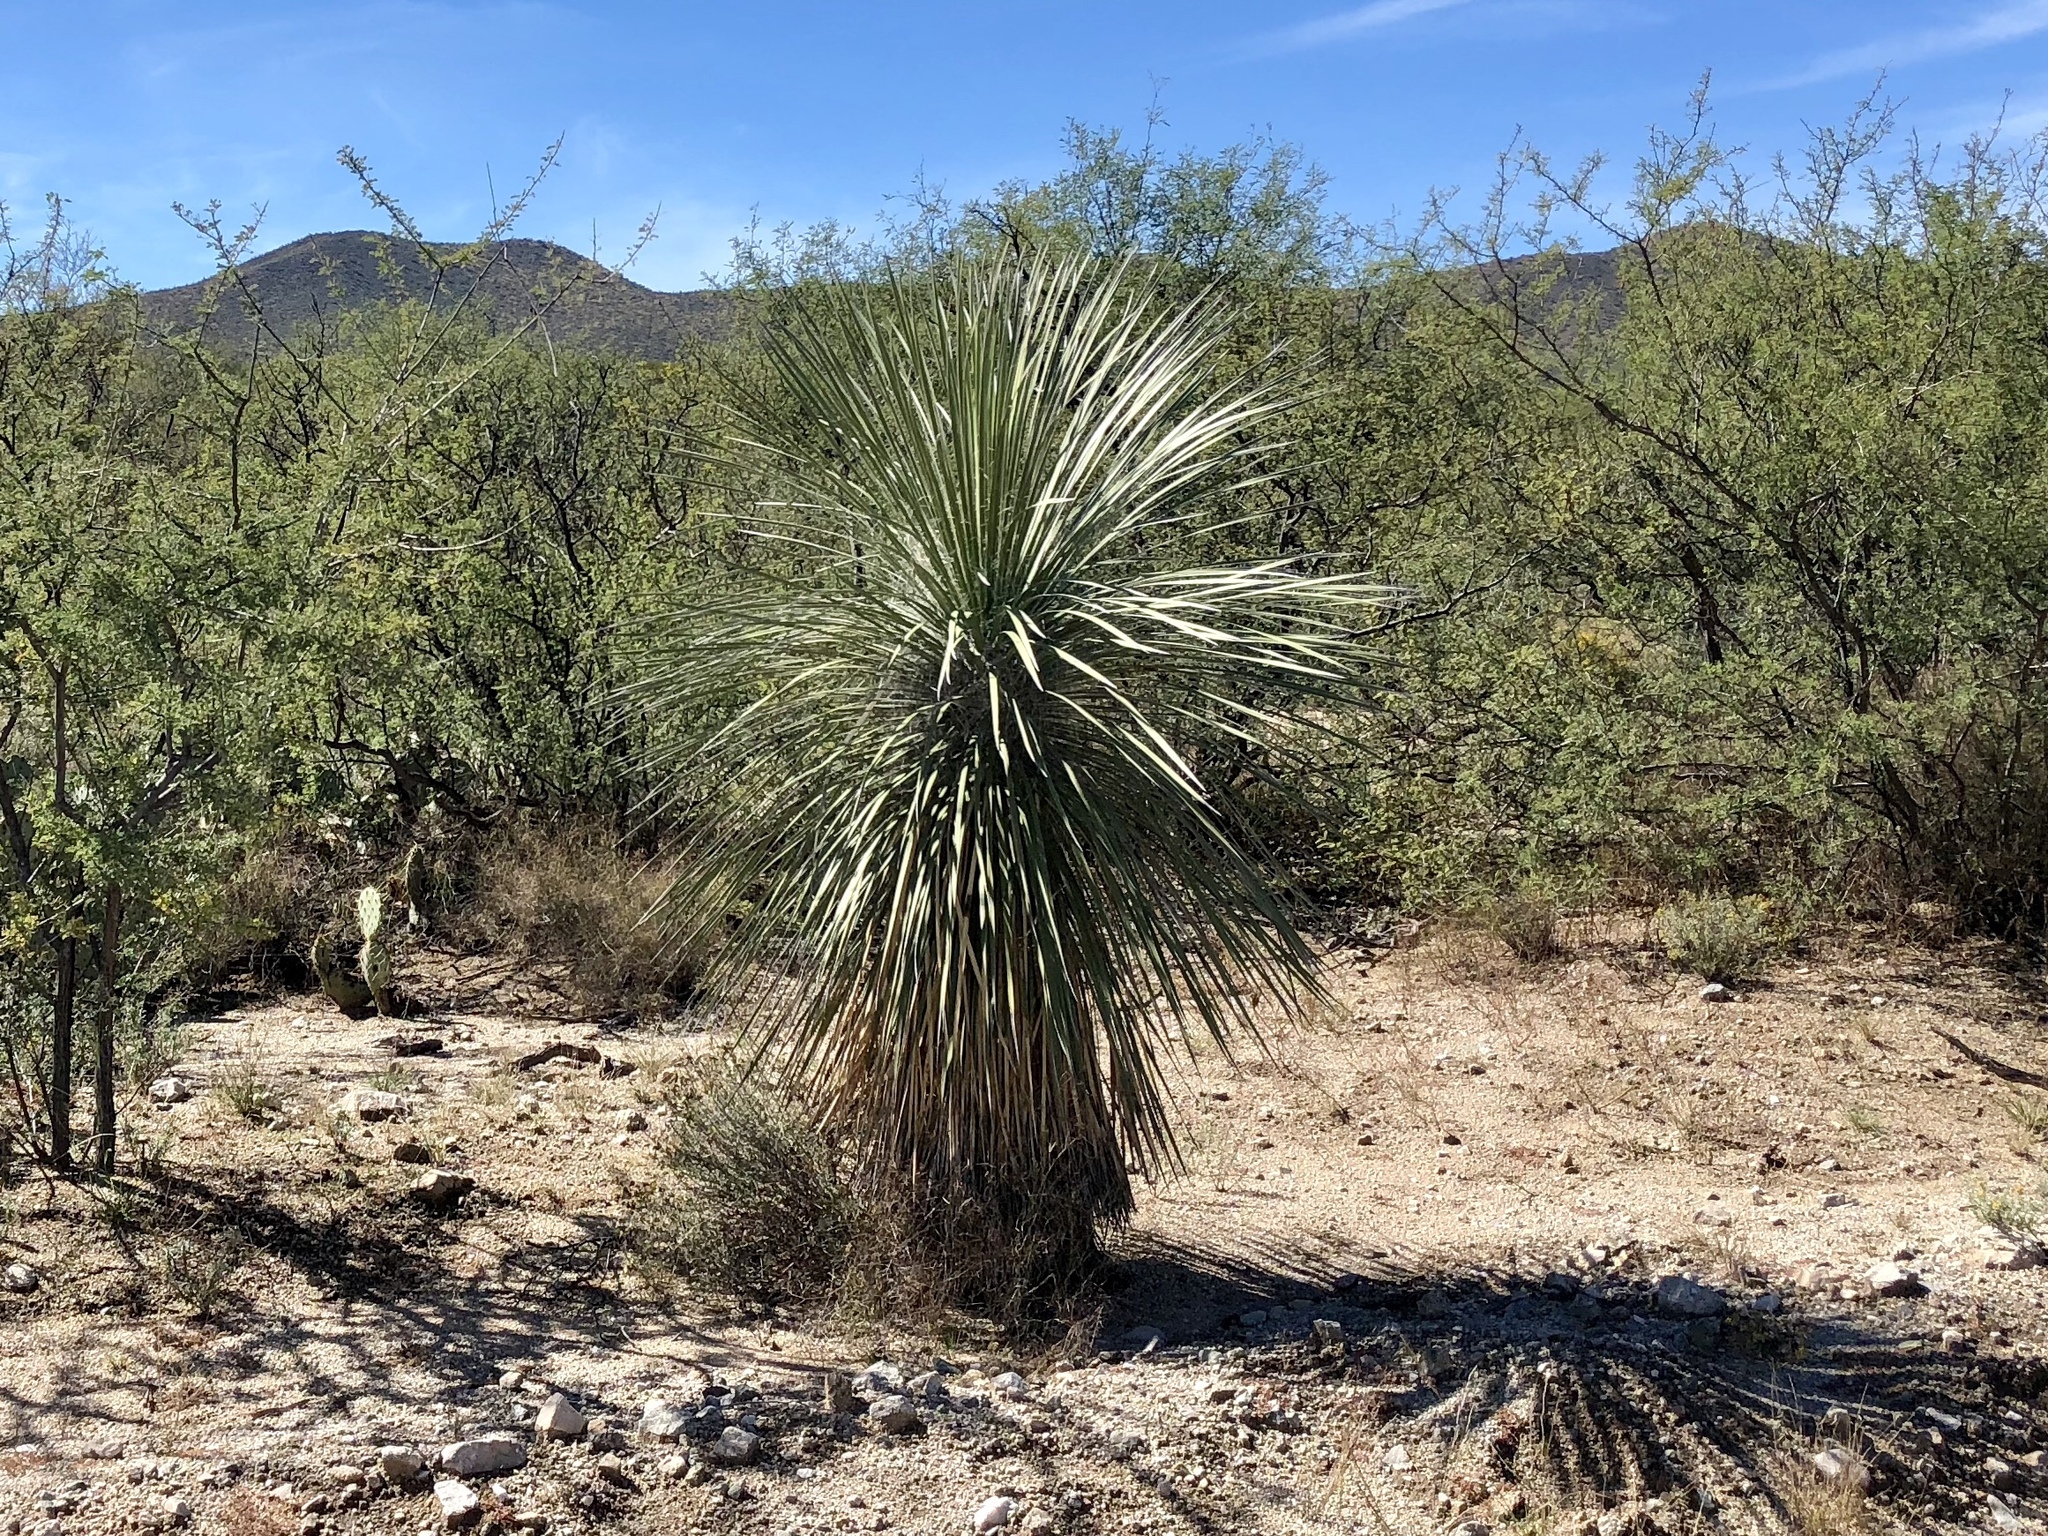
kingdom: Plantae
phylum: Tracheophyta
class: Liliopsida
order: Asparagales
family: Asparagaceae
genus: Yucca
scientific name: Yucca elata
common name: Palmella
